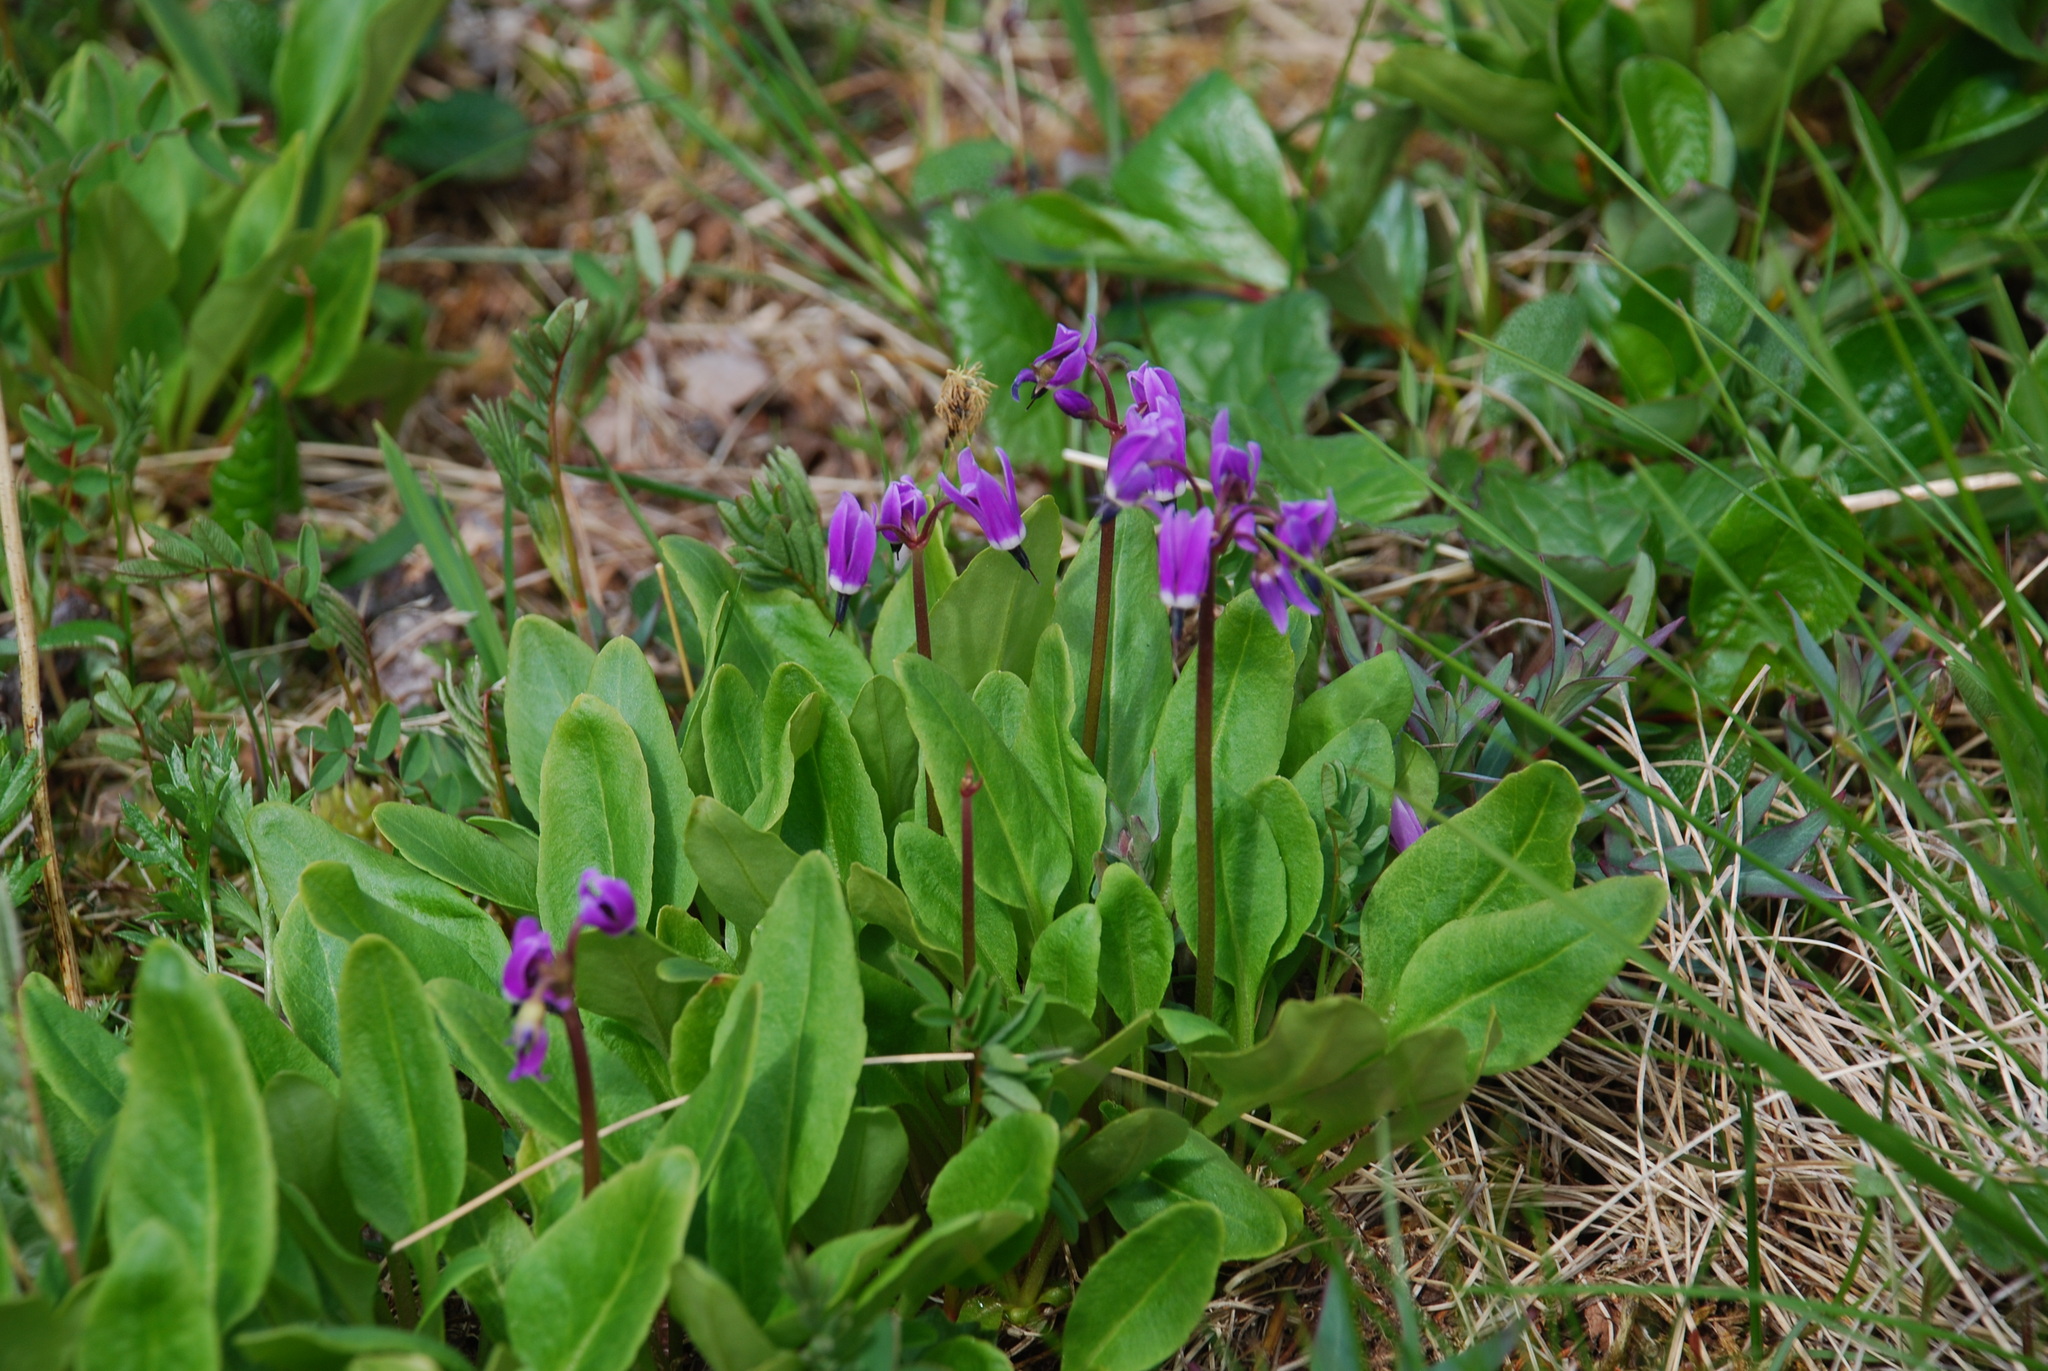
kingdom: Plantae
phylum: Tracheophyta
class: Magnoliopsida
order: Ericales
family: Primulaceae
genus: Dodecatheon
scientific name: Dodecatheon frigidum
